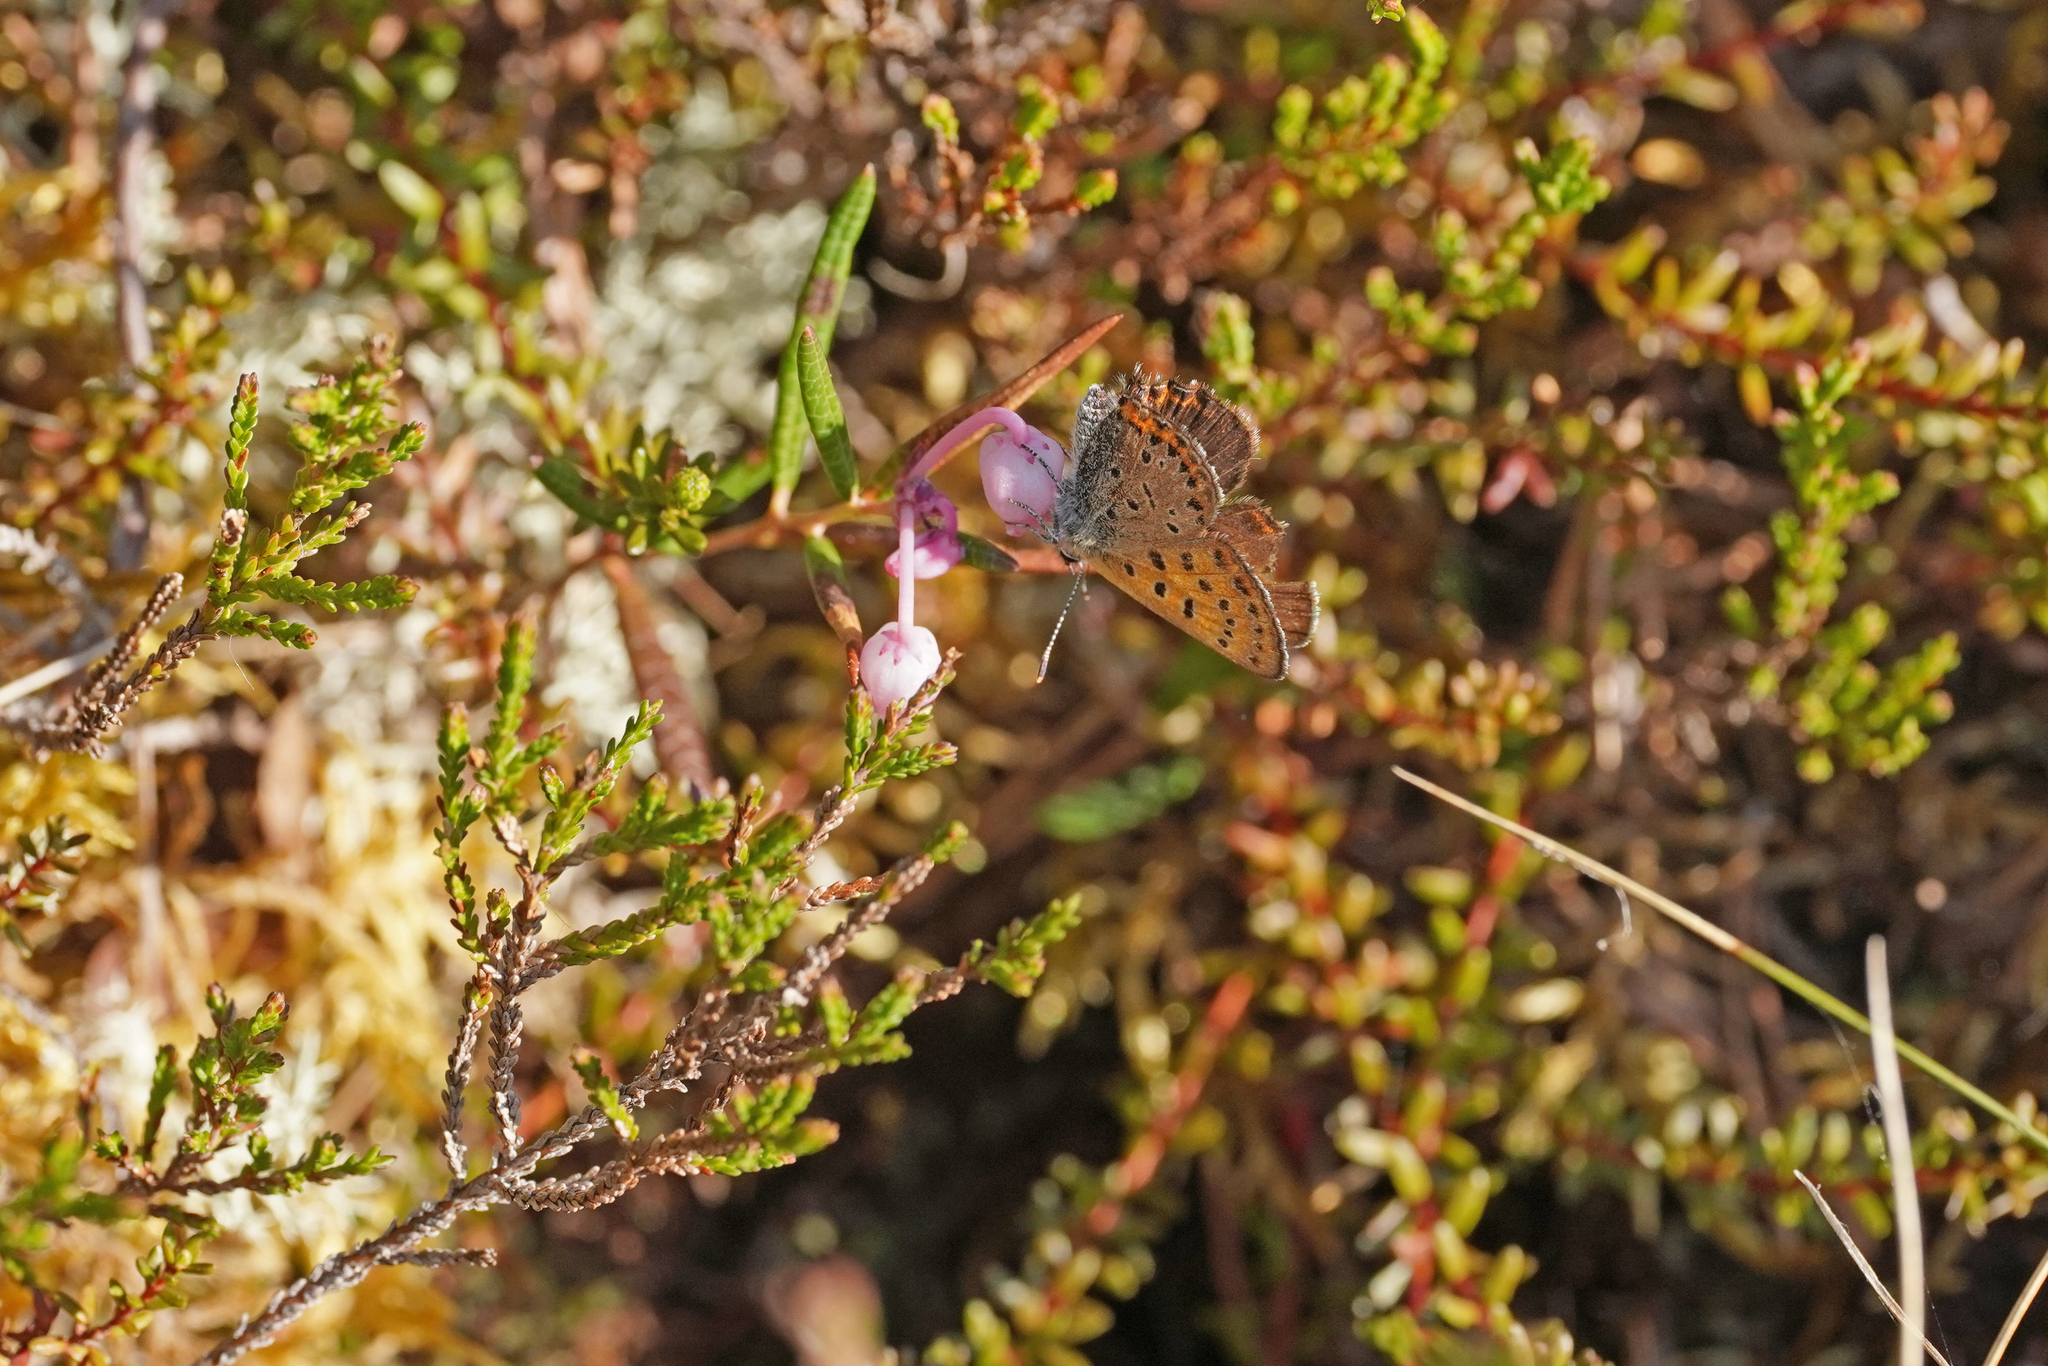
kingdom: Animalia
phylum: Arthropoda
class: Insecta
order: Lepidoptera
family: Lycaenidae
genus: Helleia
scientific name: Helleia helle
